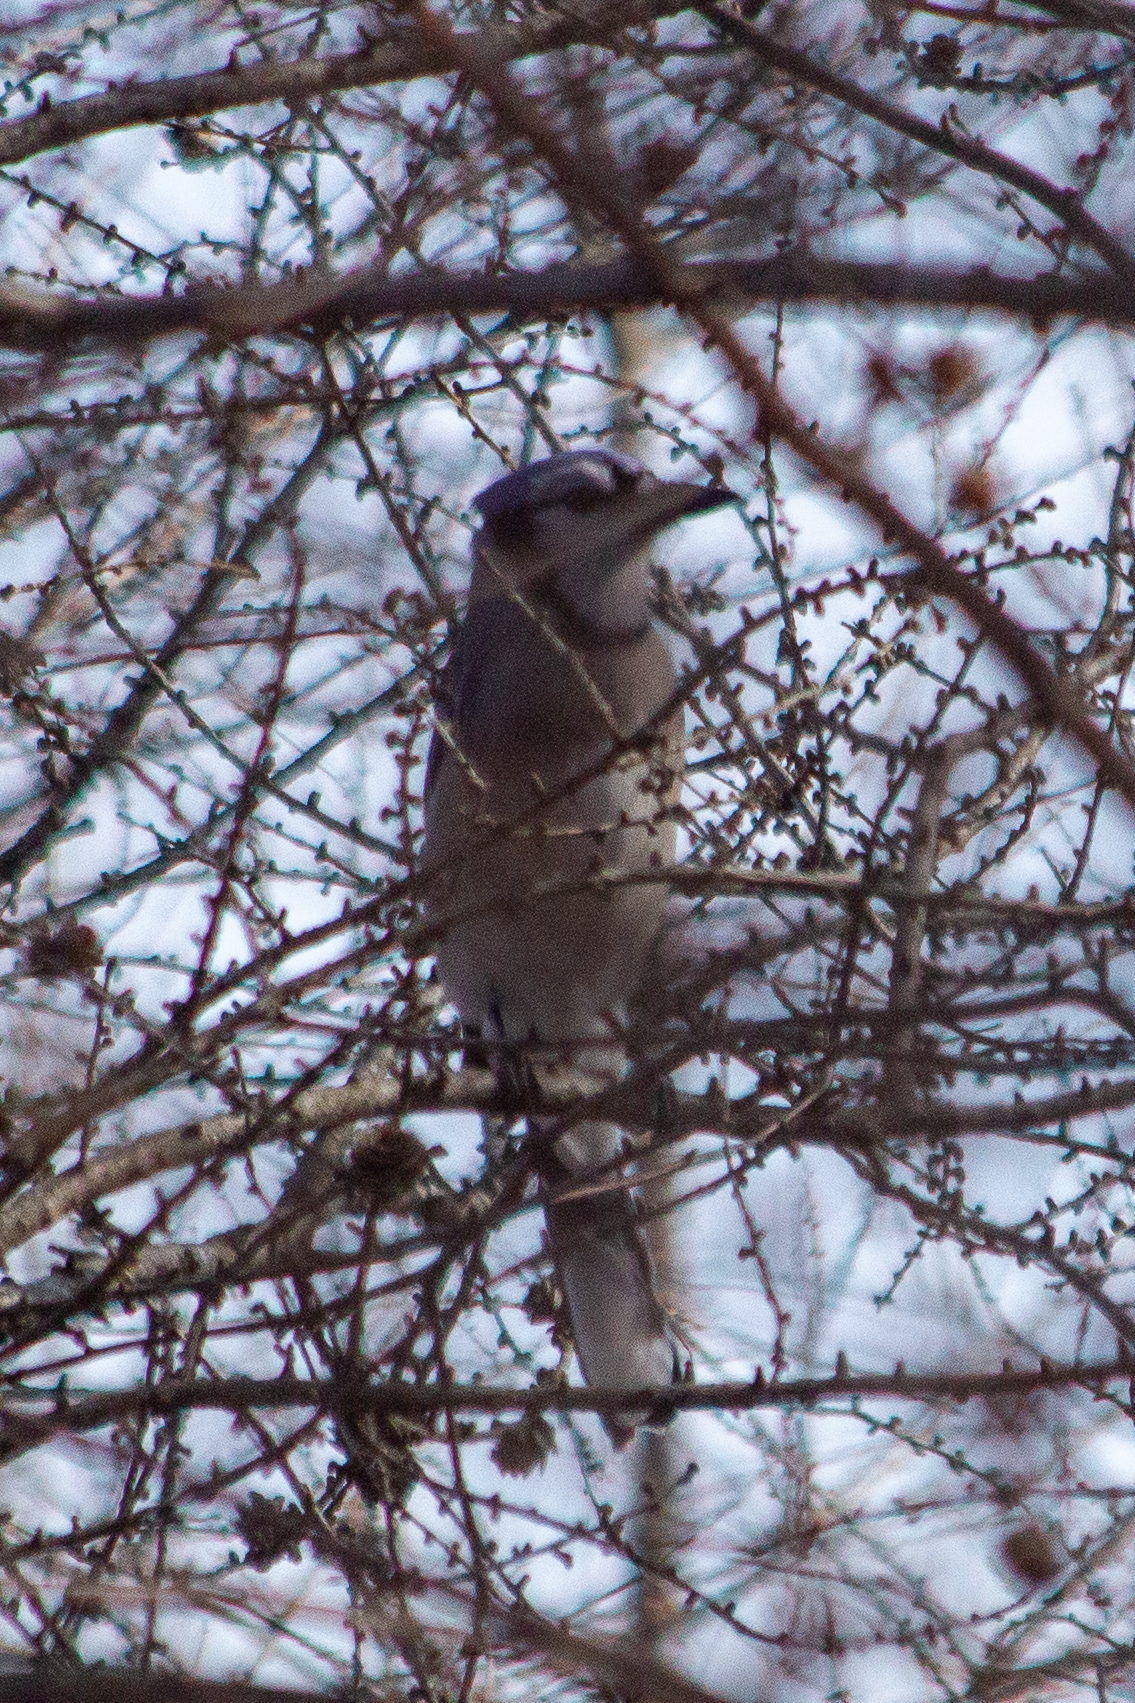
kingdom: Animalia
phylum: Chordata
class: Aves
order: Passeriformes
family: Corvidae
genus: Cyanocitta
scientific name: Cyanocitta cristata
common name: Blue jay
